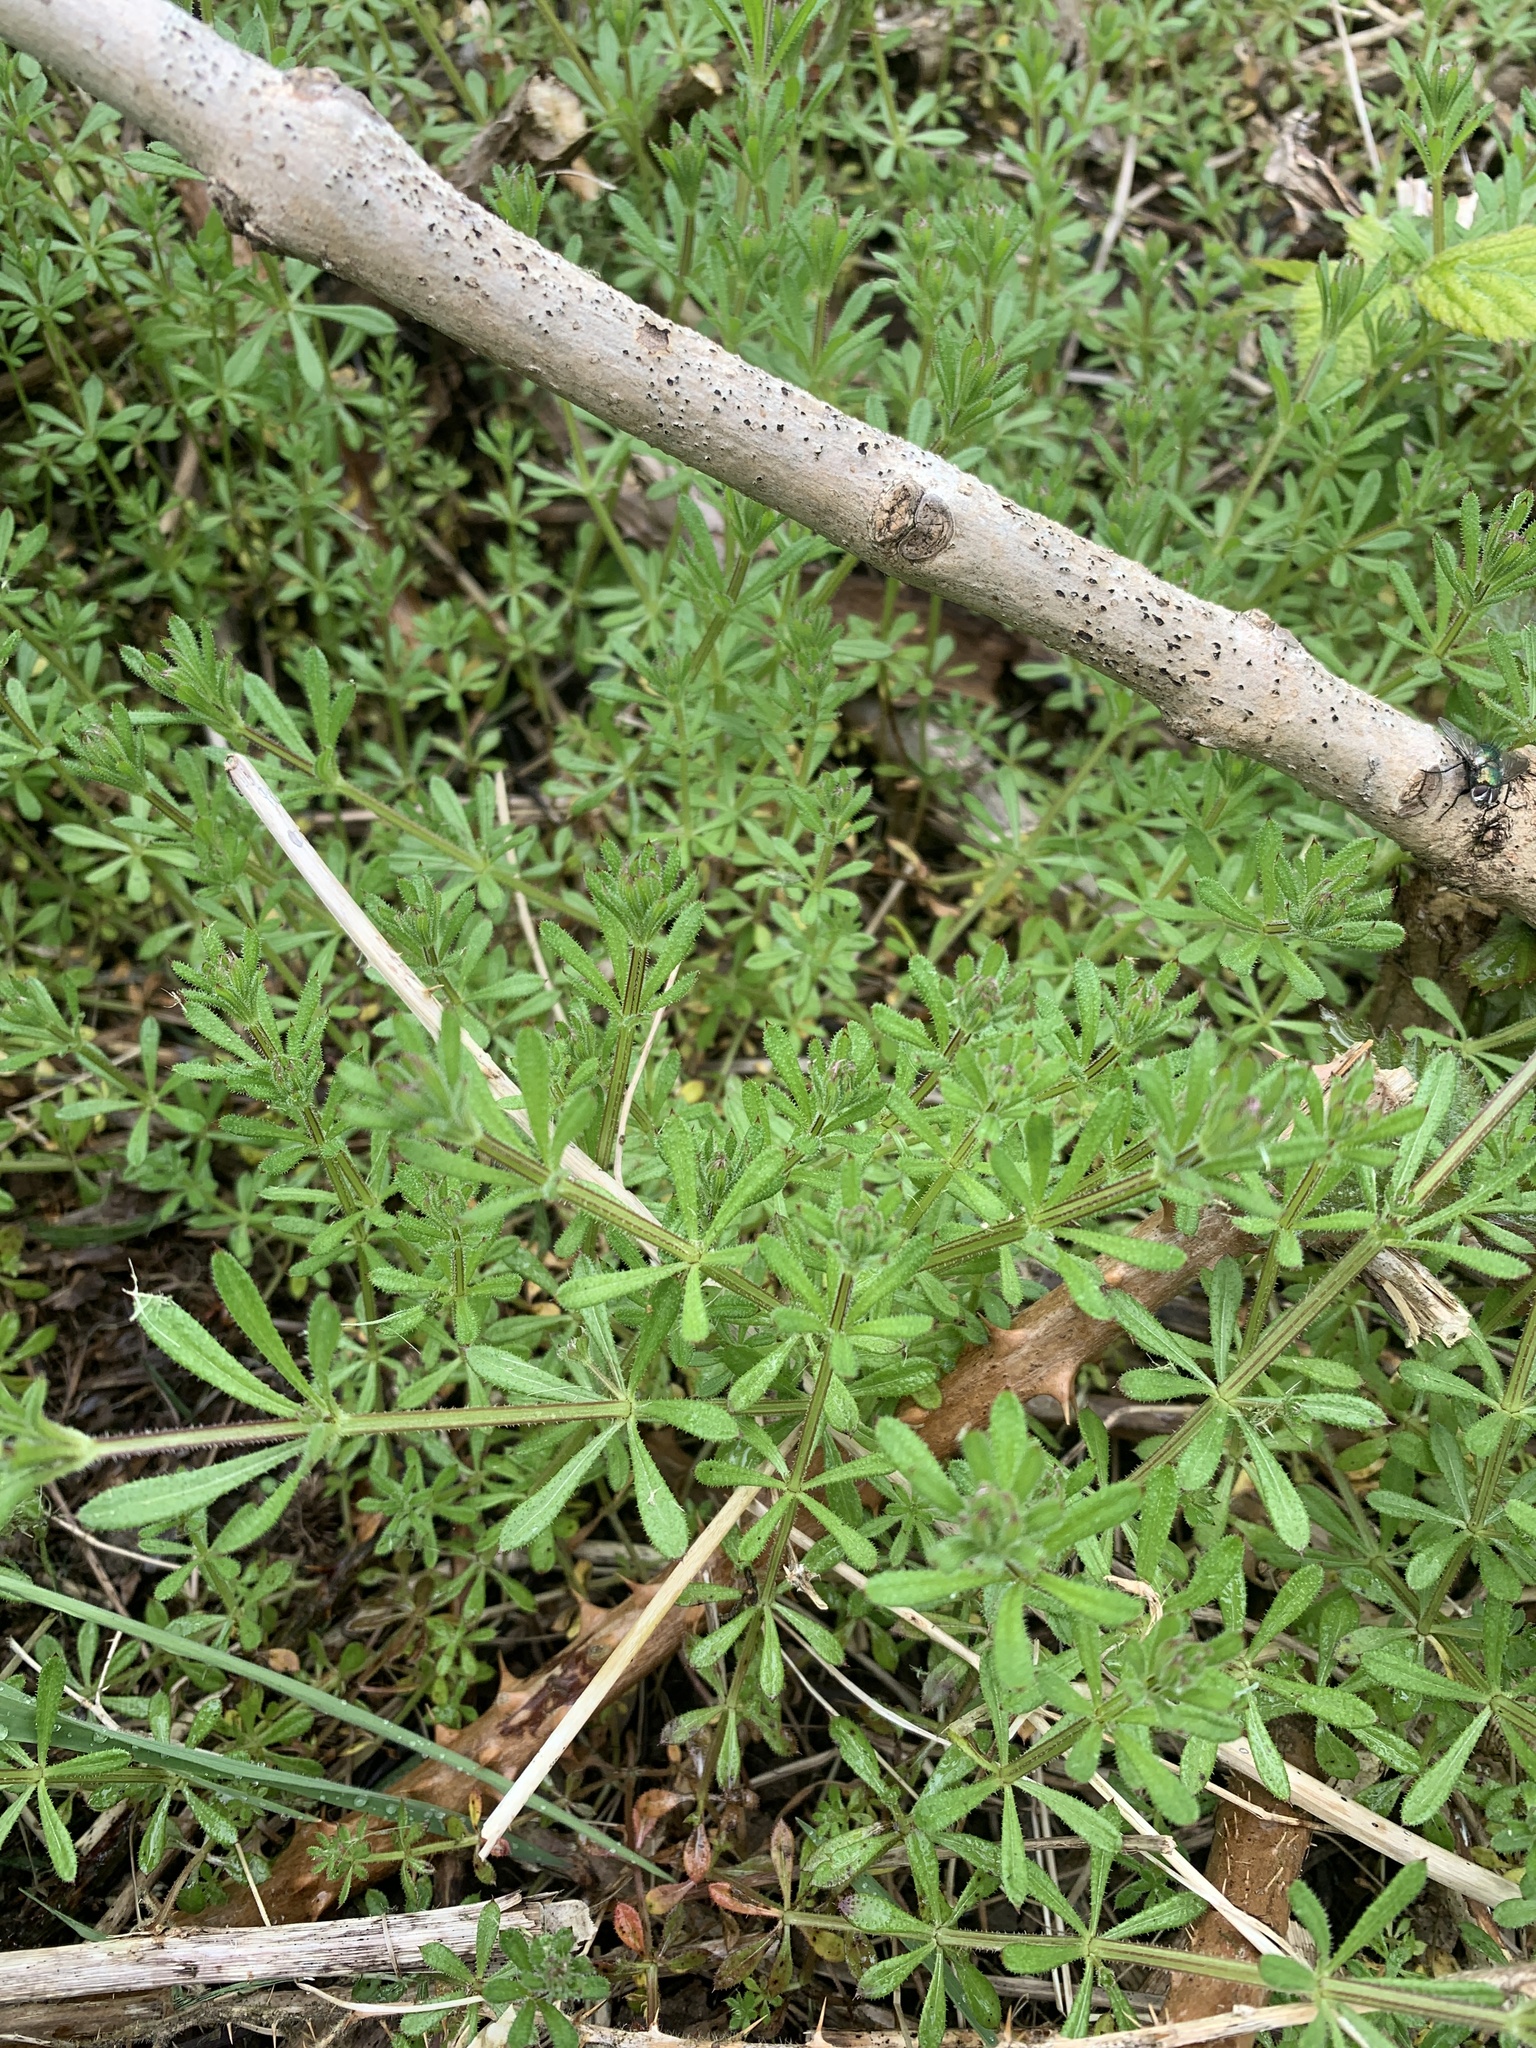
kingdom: Plantae
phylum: Tracheophyta
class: Magnoliopsida
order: Gentianales
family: Rubiaceae
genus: Galium
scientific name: Galium aparine
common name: Cleavers
